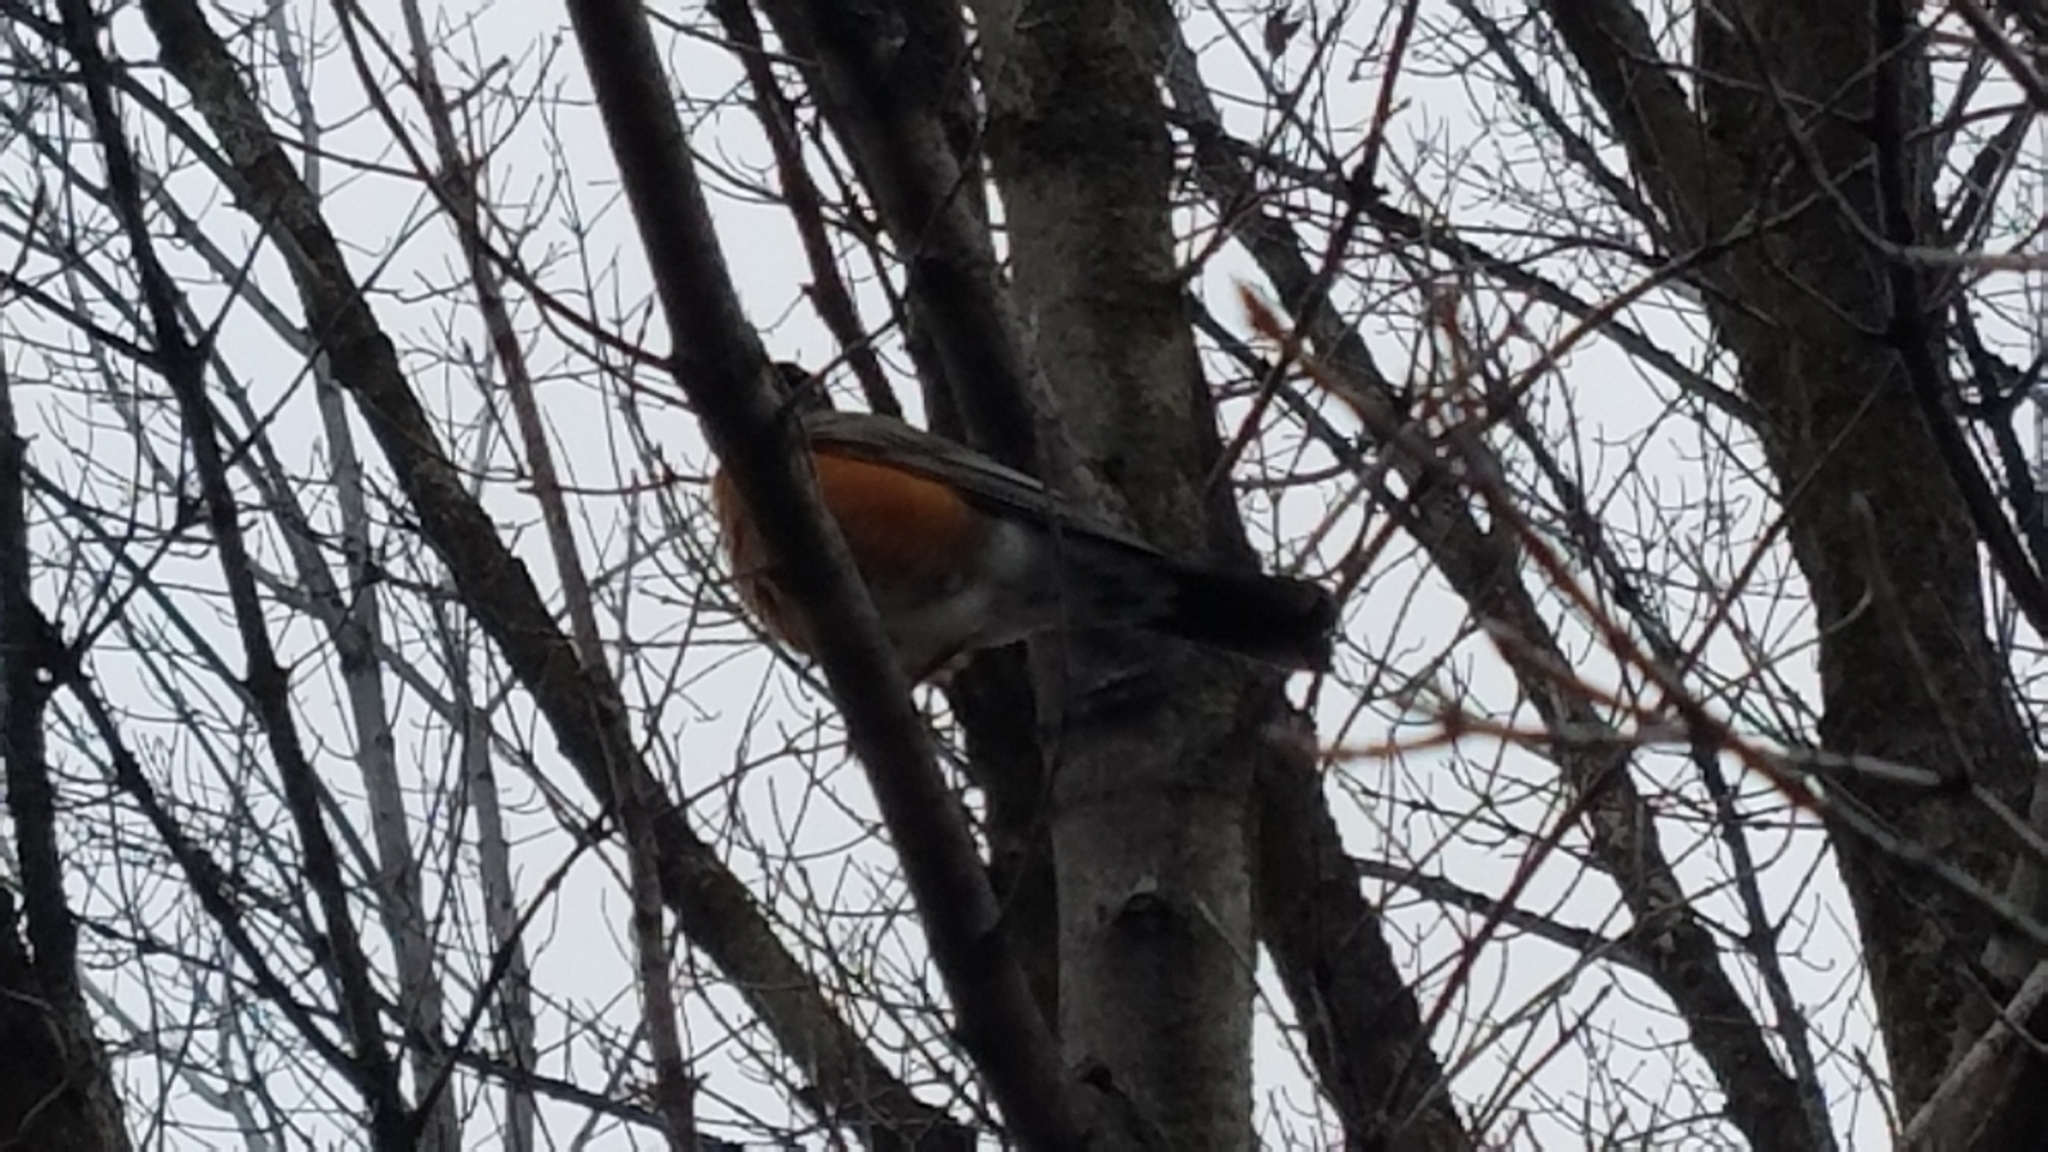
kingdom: Animalia
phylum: Chordata
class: Aves
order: Passeriformes
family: Turdidae
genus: Turdus
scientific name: Turdus migratorius
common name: American robin
